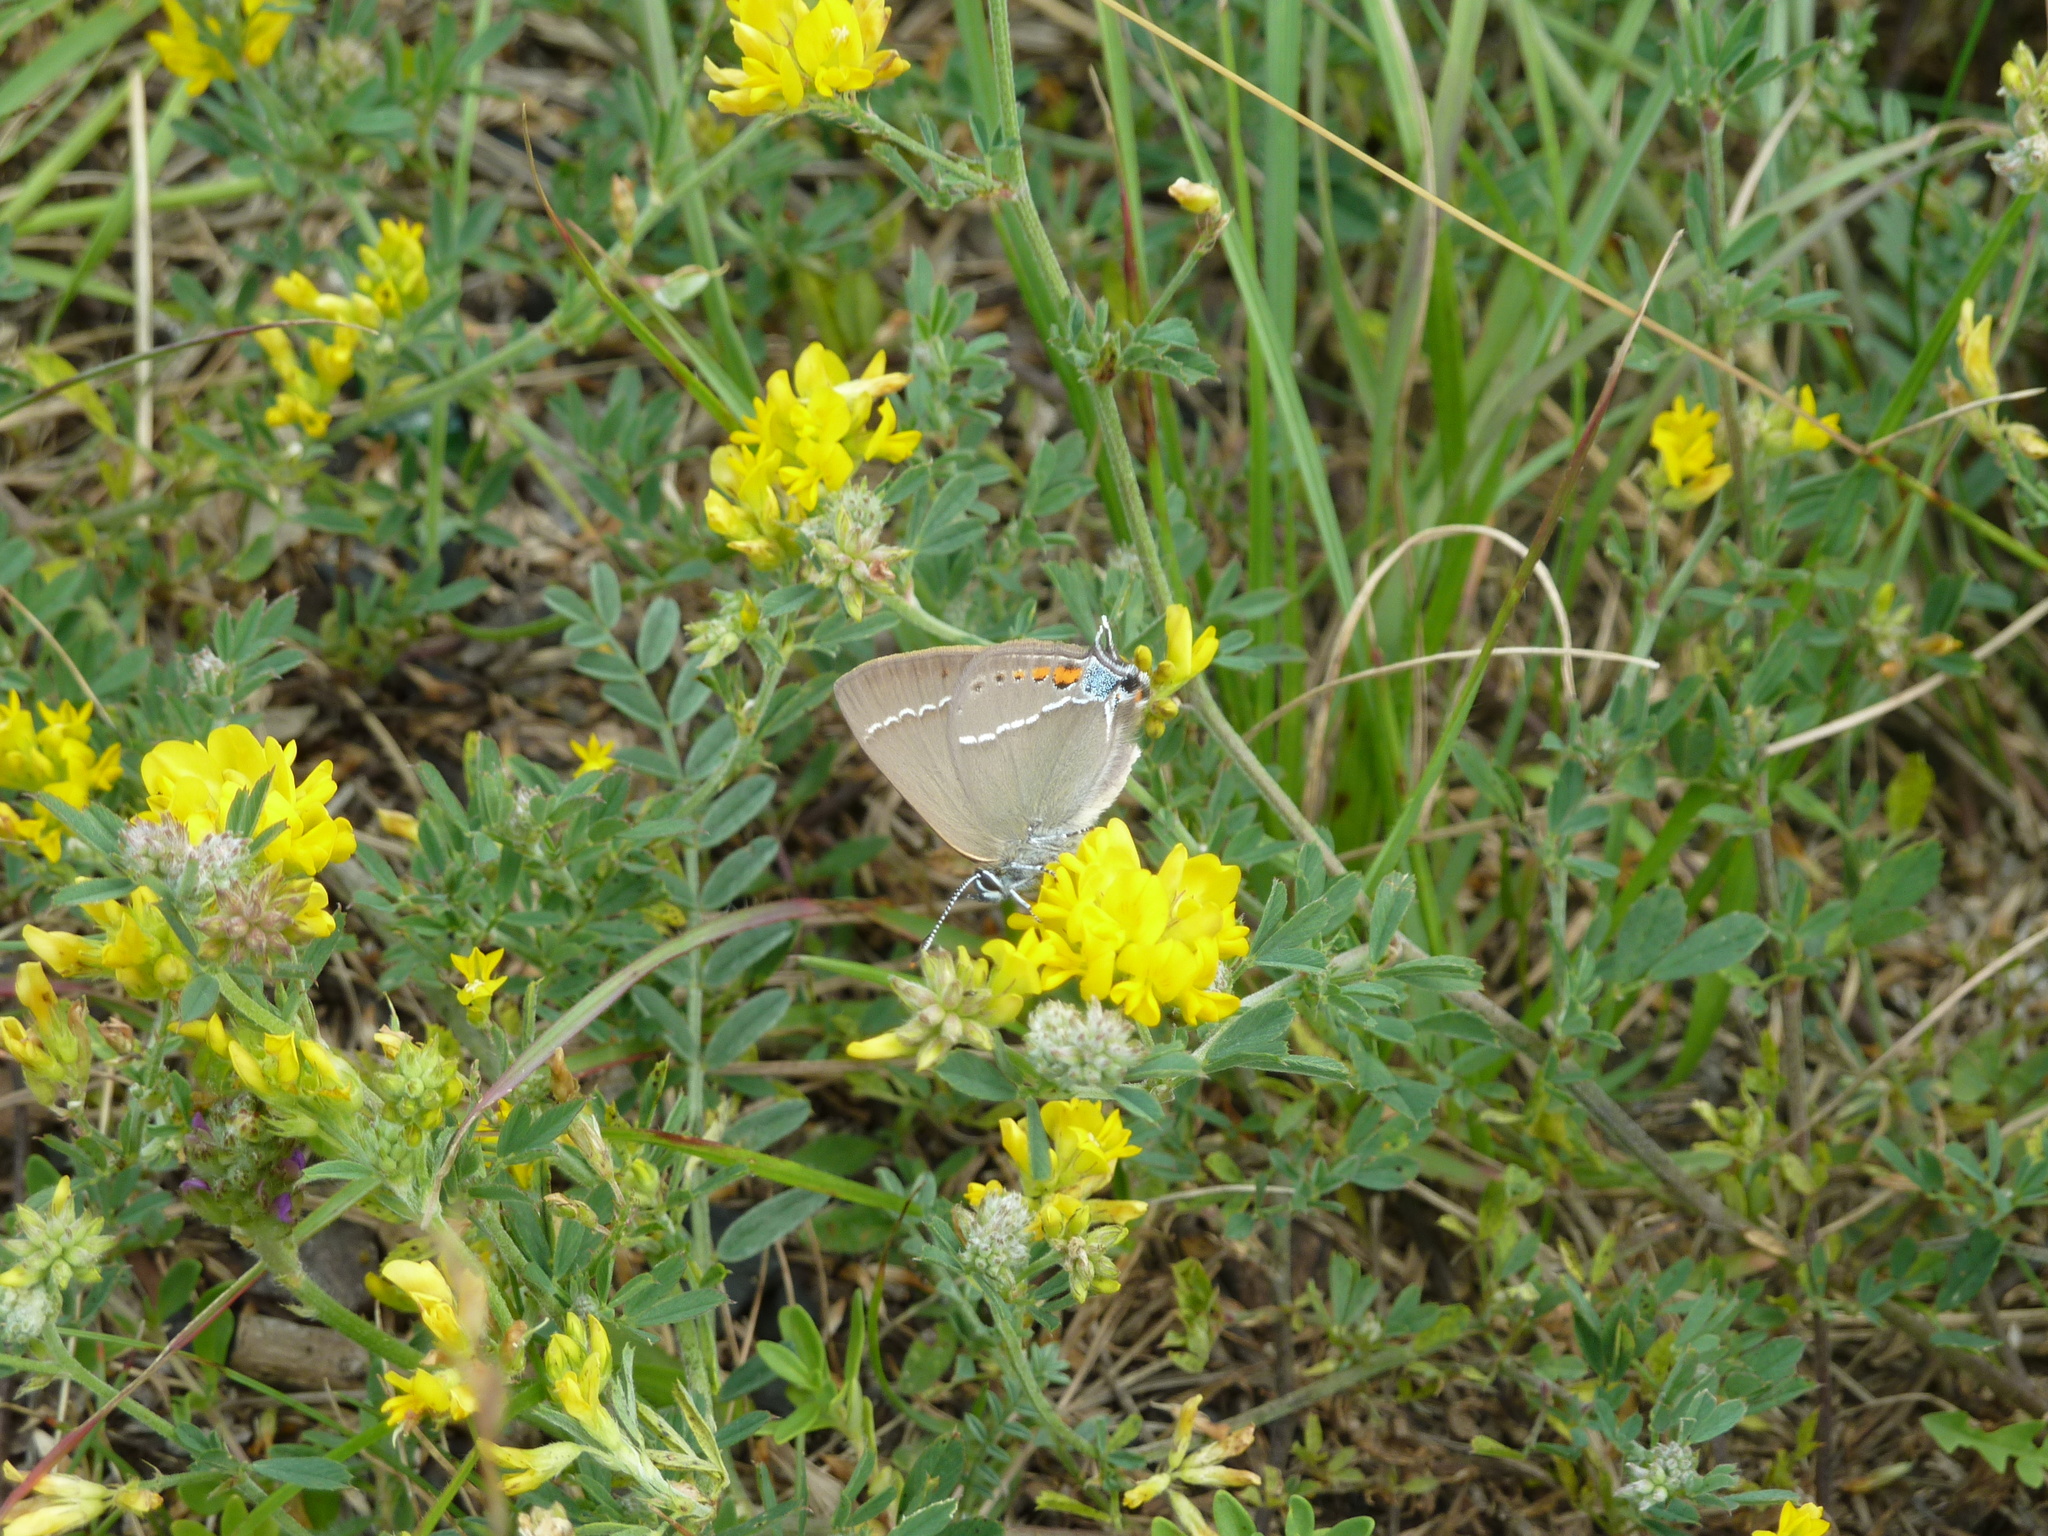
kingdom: Animalia
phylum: Arthropoda
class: Insecta
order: Lepidoptera
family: Lycaenidae
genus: Tuttiola
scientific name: Tuttiola spini
